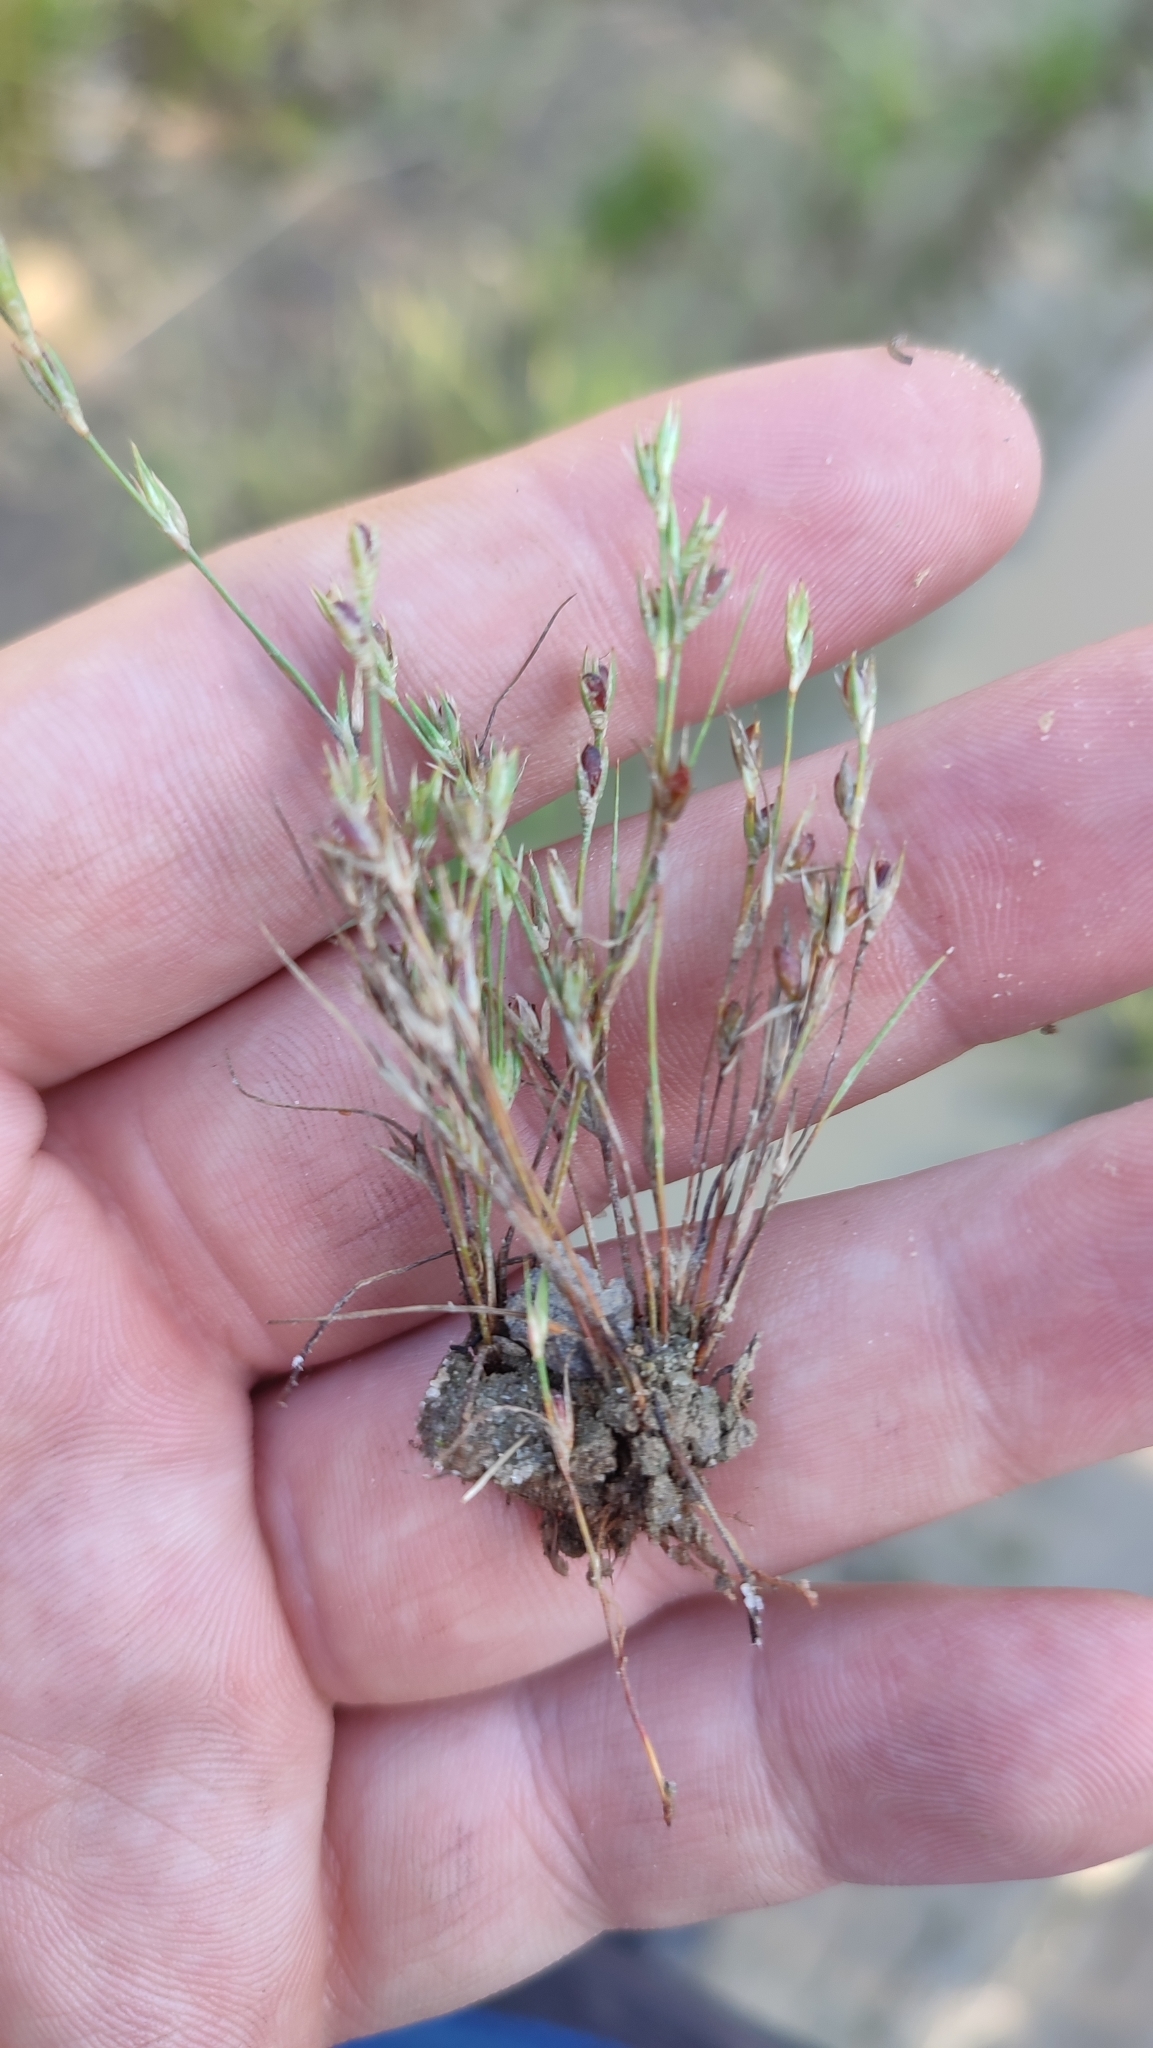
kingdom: Plantae
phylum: Tracheophyta
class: Liliopsida
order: Poales
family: Juncaceae
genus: Juncus
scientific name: Juncus bufonius
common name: Toad rush
